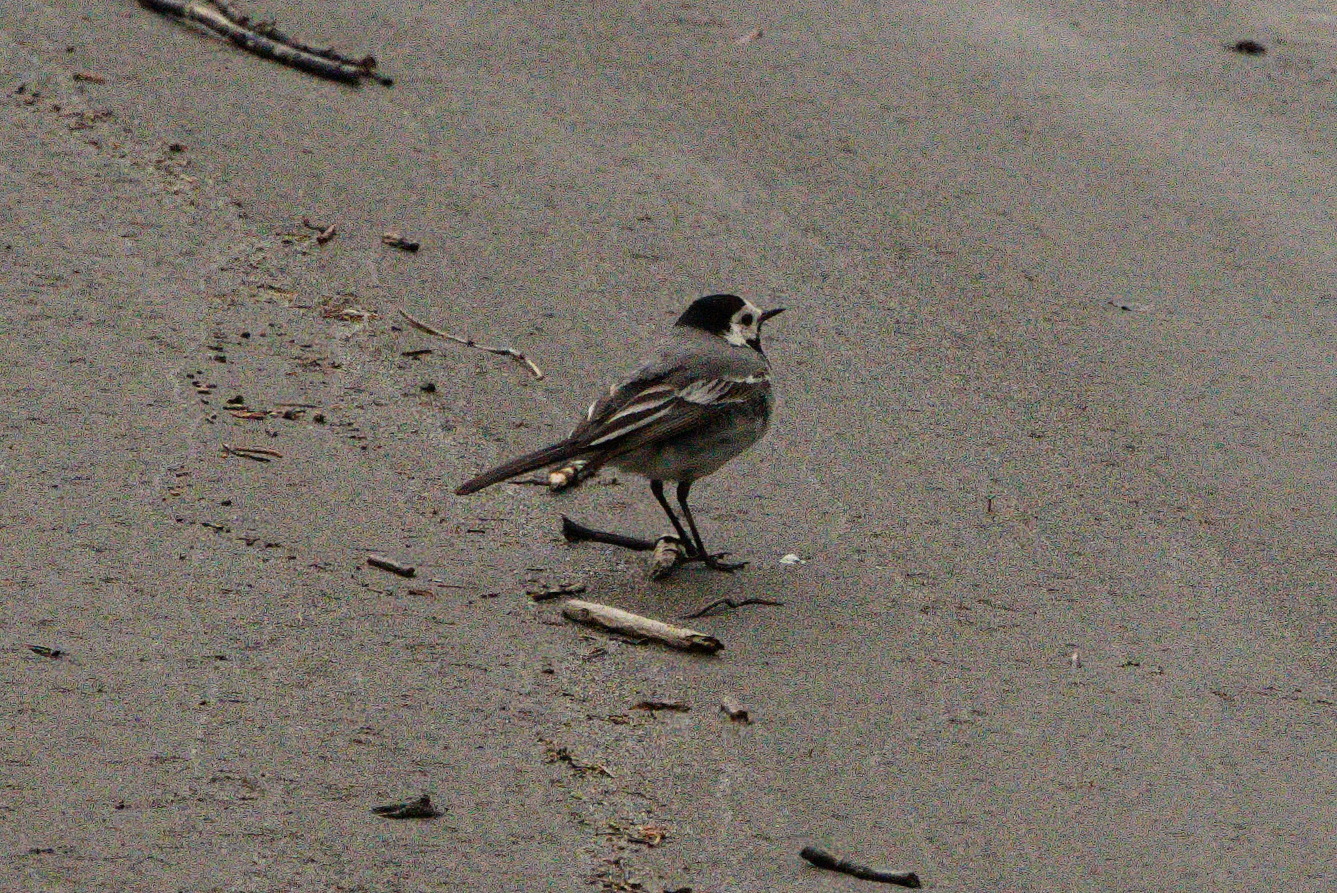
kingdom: Animalia
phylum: Chordata
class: Aves
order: Passeriformes
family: Motacillidae
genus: Motacilla
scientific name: Motacilla alba
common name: White wagtail
